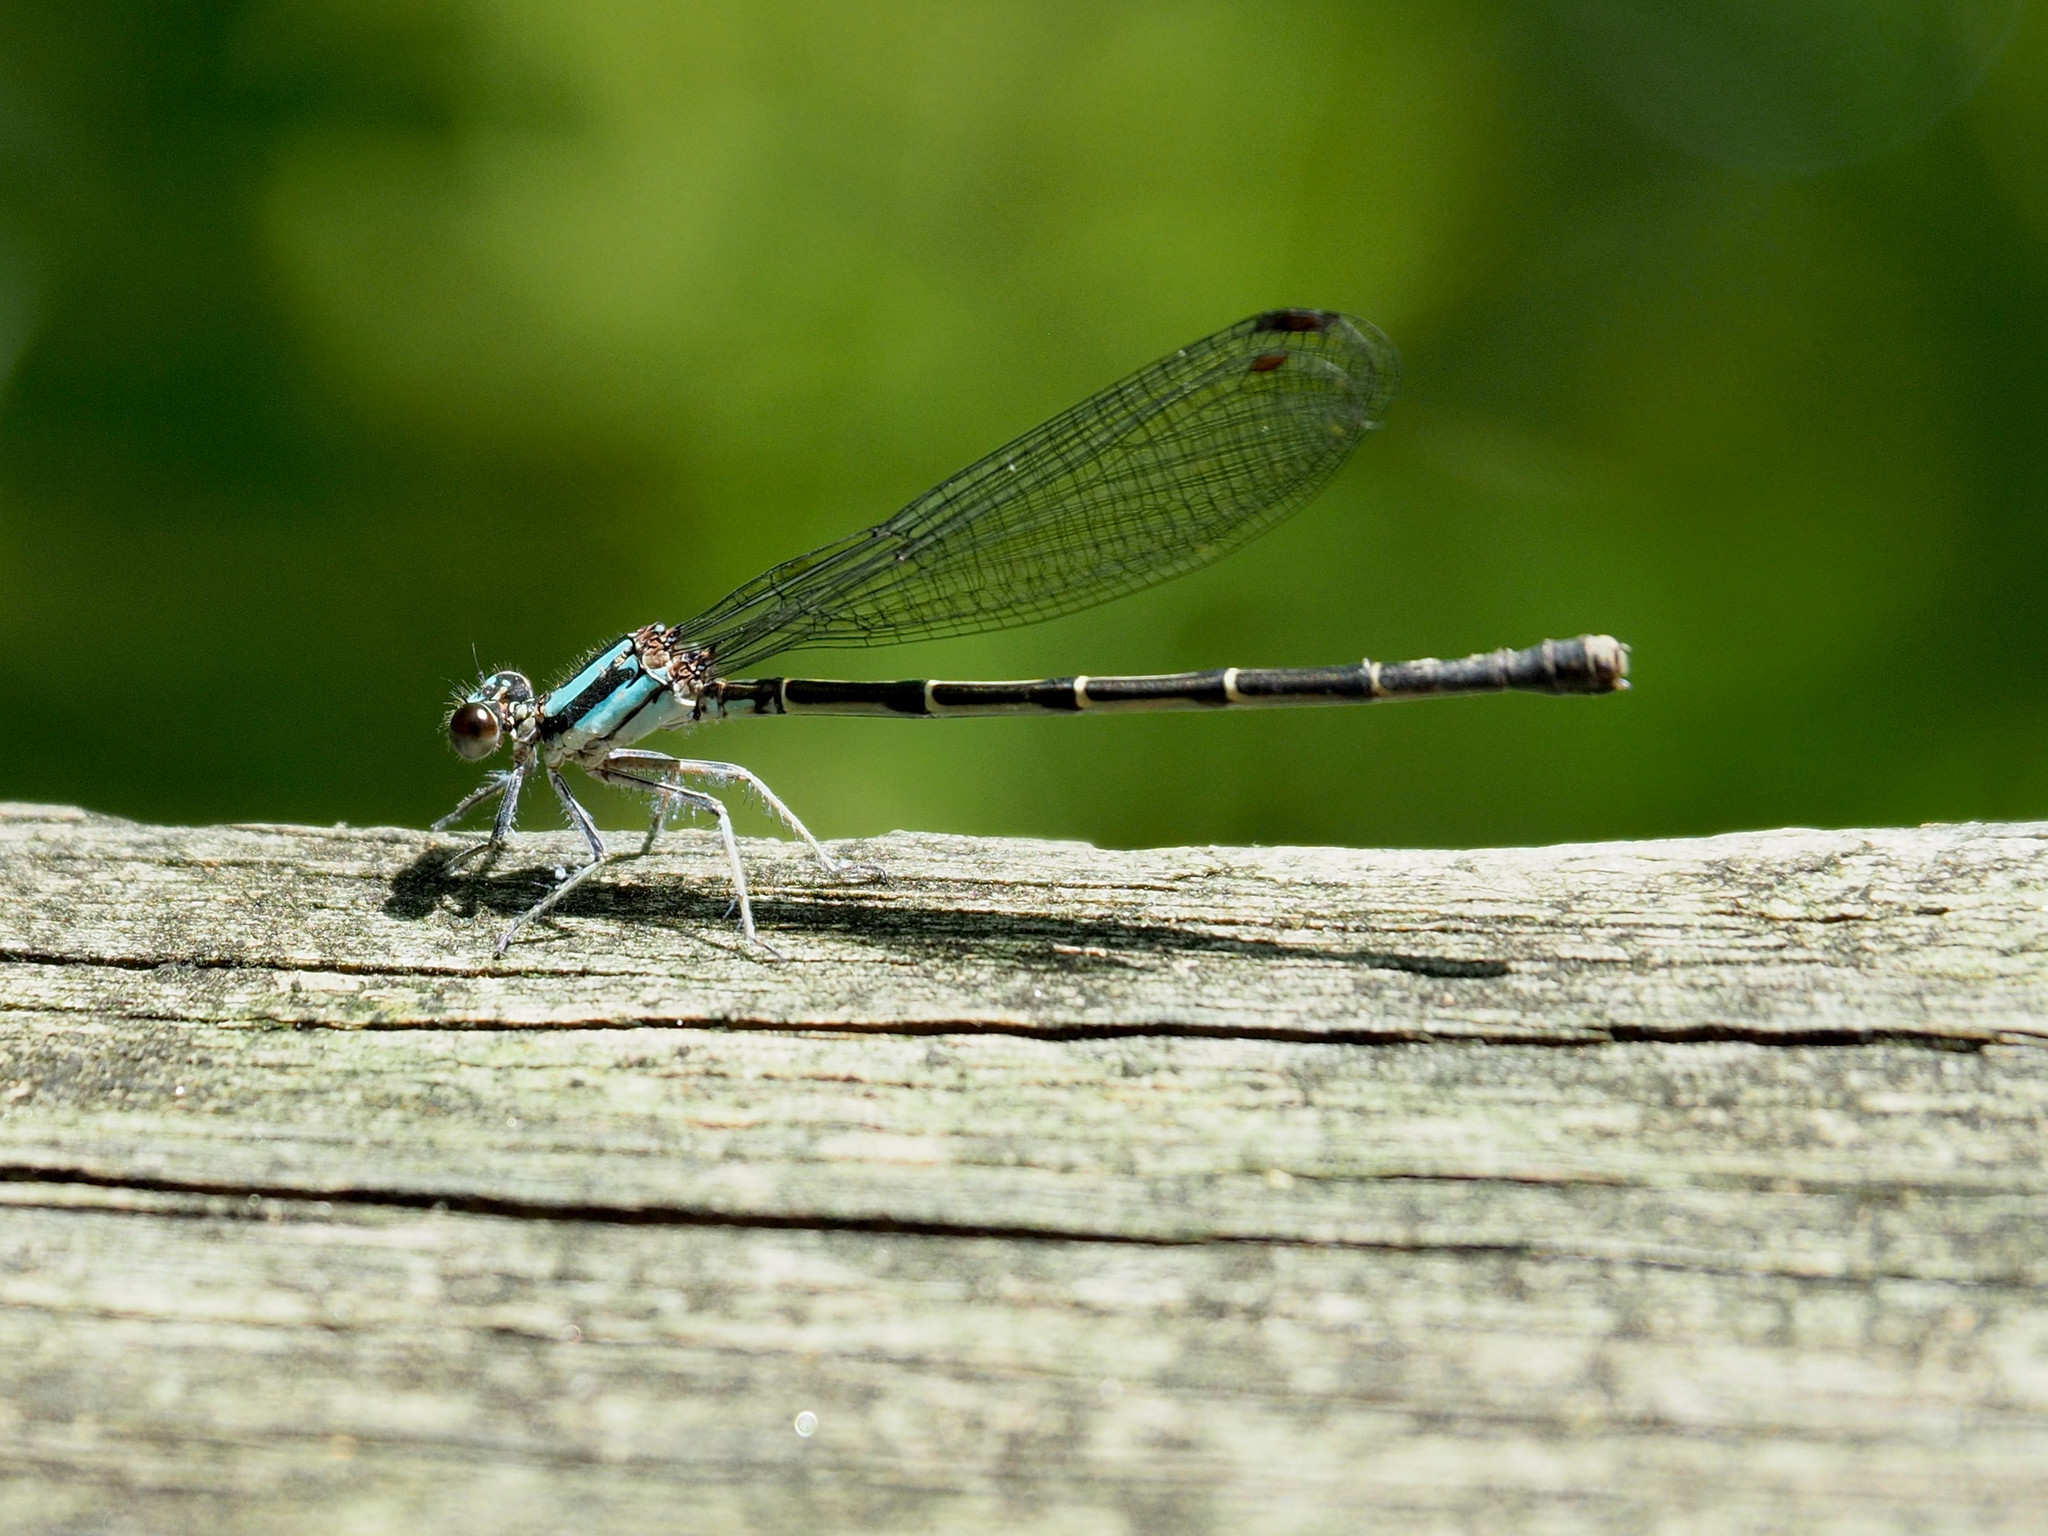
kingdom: Animalia
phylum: Arthropoda
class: Insecta
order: Odonata
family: Coenagrionidae
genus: Argia
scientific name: Argia tibialis
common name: Blue-tipped dancer
